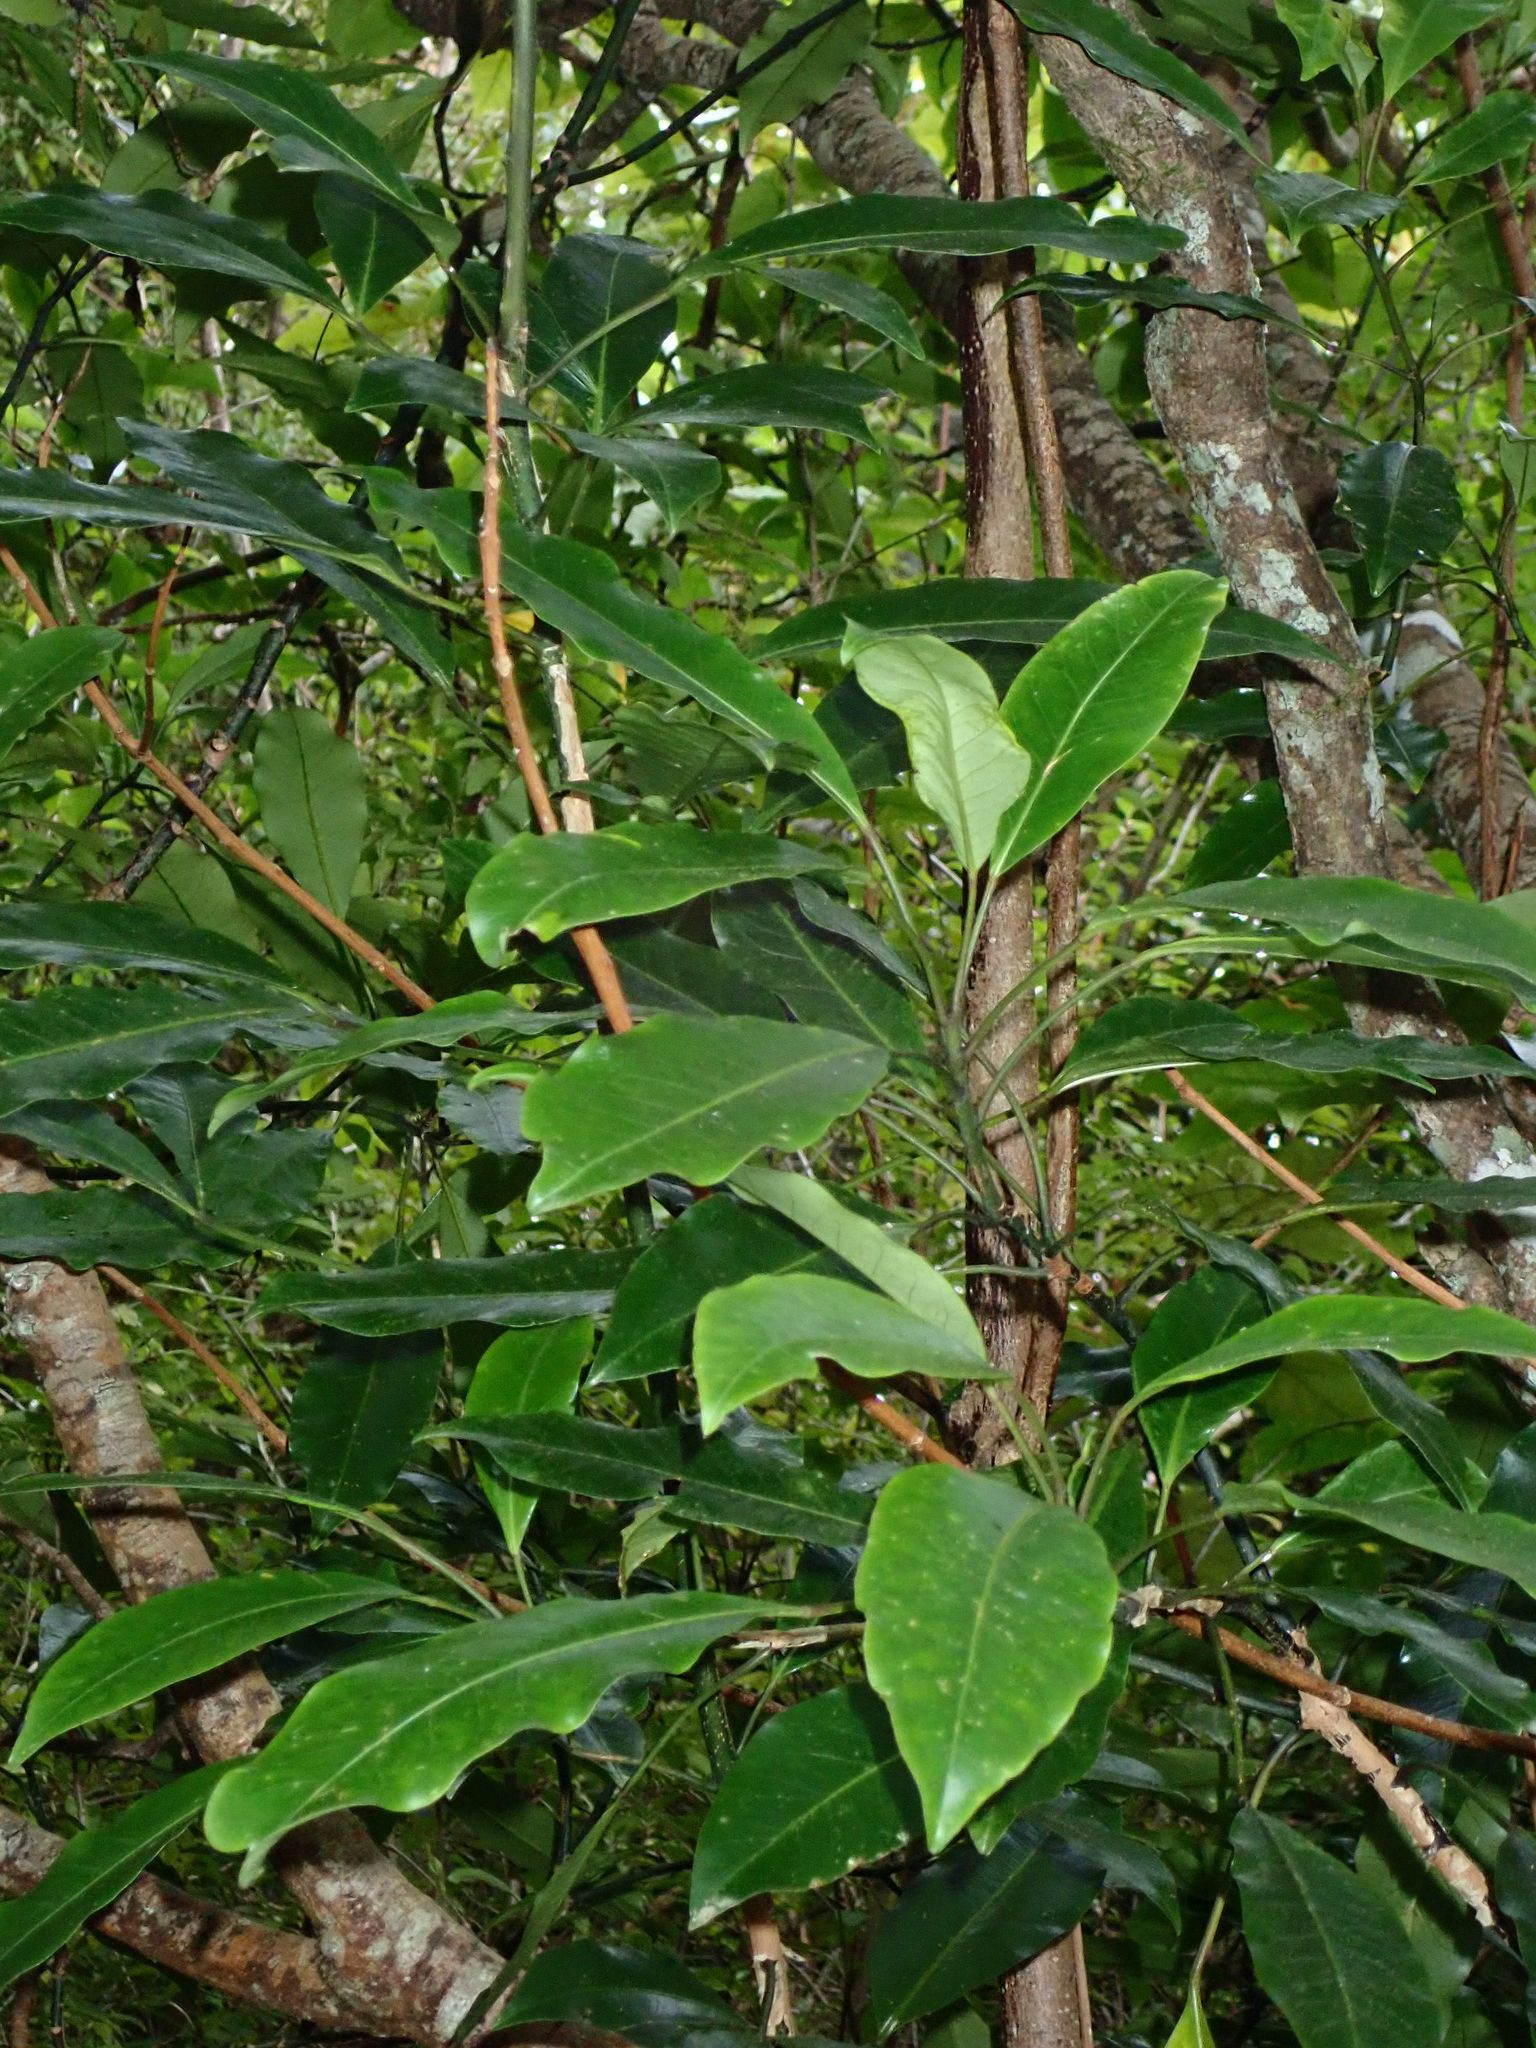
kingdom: Plantae
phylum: Tracheophyta
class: Magnoliopsida
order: Apiales
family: Araliaceae
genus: Raukaua
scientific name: Raukaua edgerleyi
